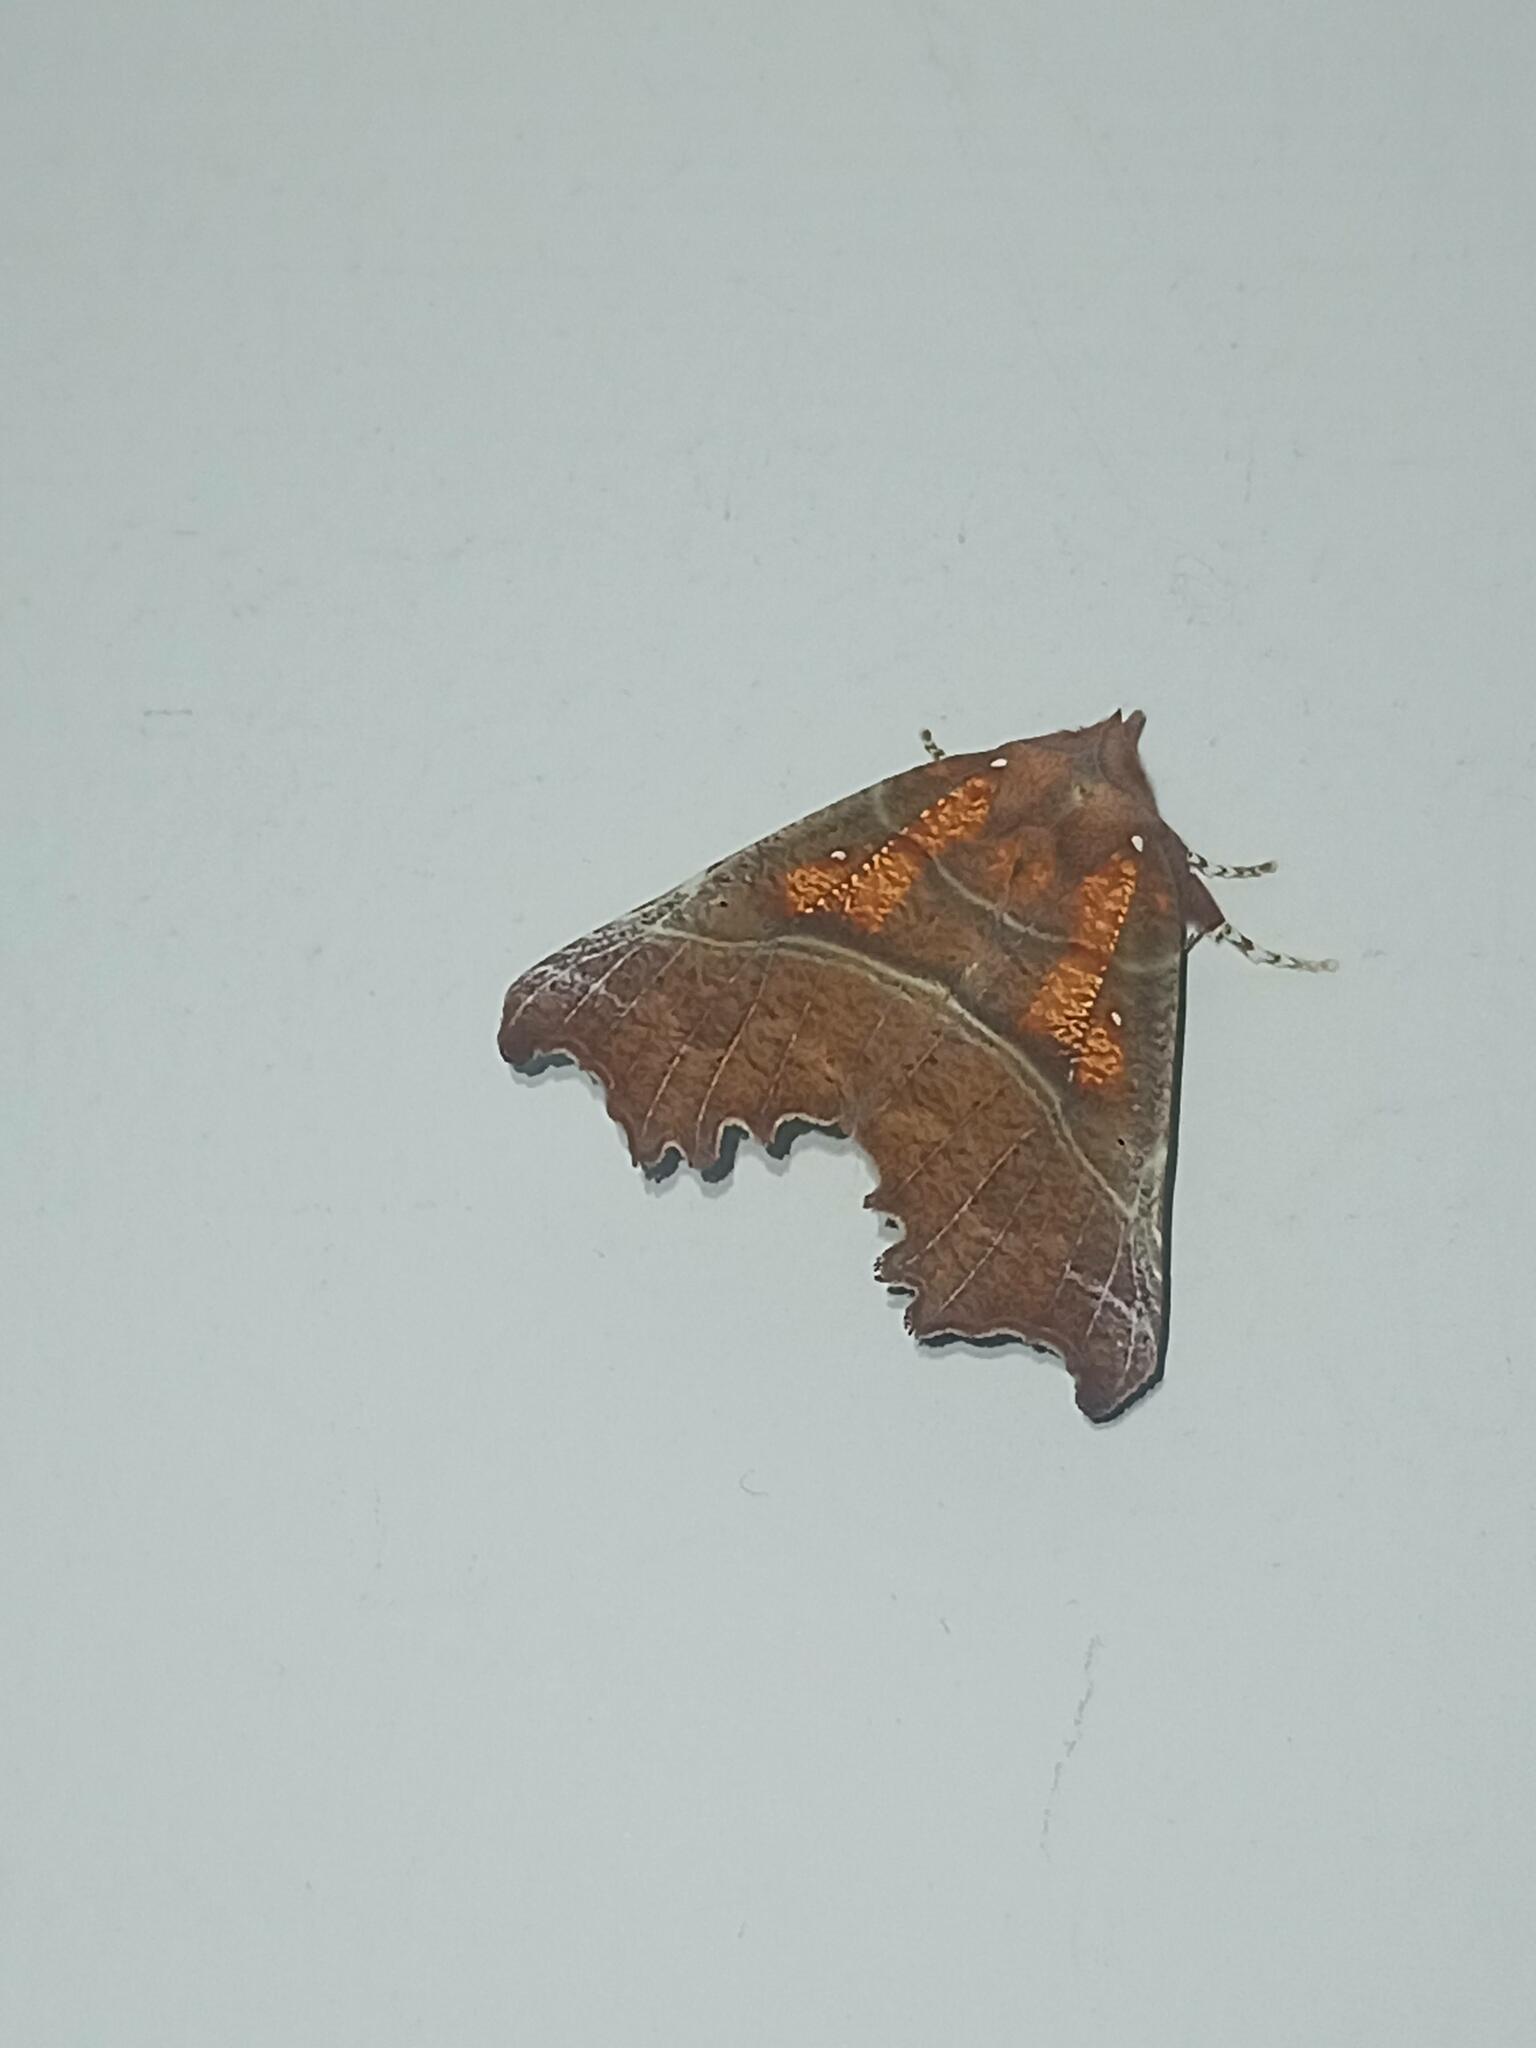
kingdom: Animalia
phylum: Arthropoda
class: Insecta
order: Lepidoptera
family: Erebidae
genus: Scoliopteryx
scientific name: Scoliopteryx libatrix
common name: Herald
